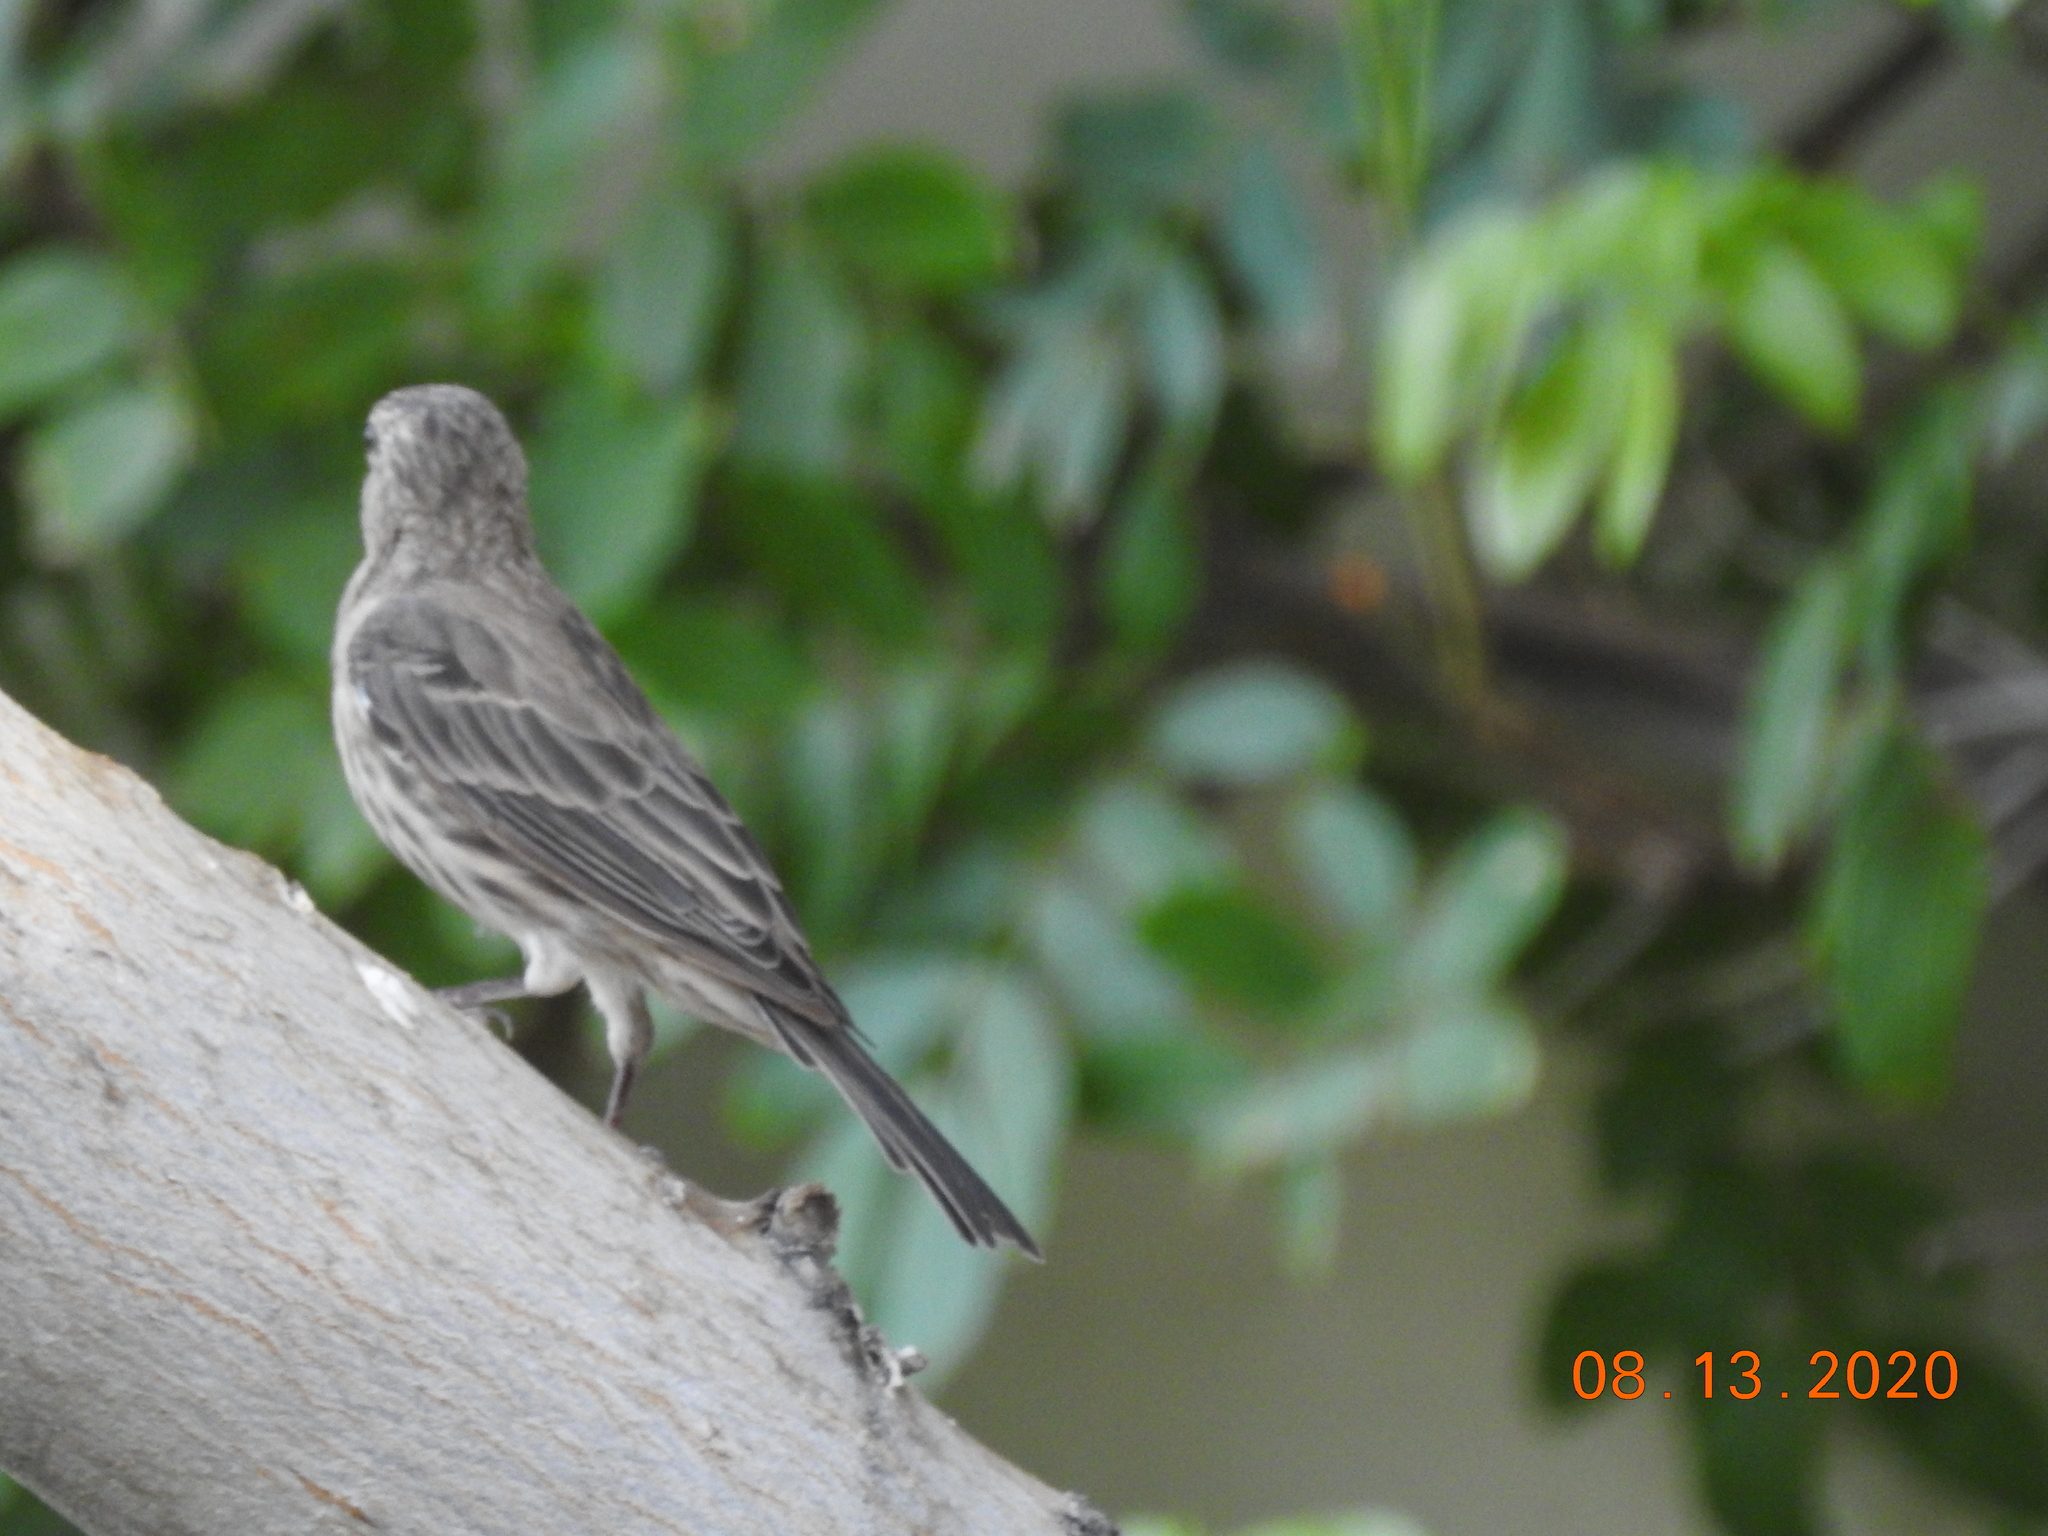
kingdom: Animalia
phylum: Chordata
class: Aves
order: Passeriformes
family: Fringillidae
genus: Haemorhous
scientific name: Haemorhous mexicanus
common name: House finch
